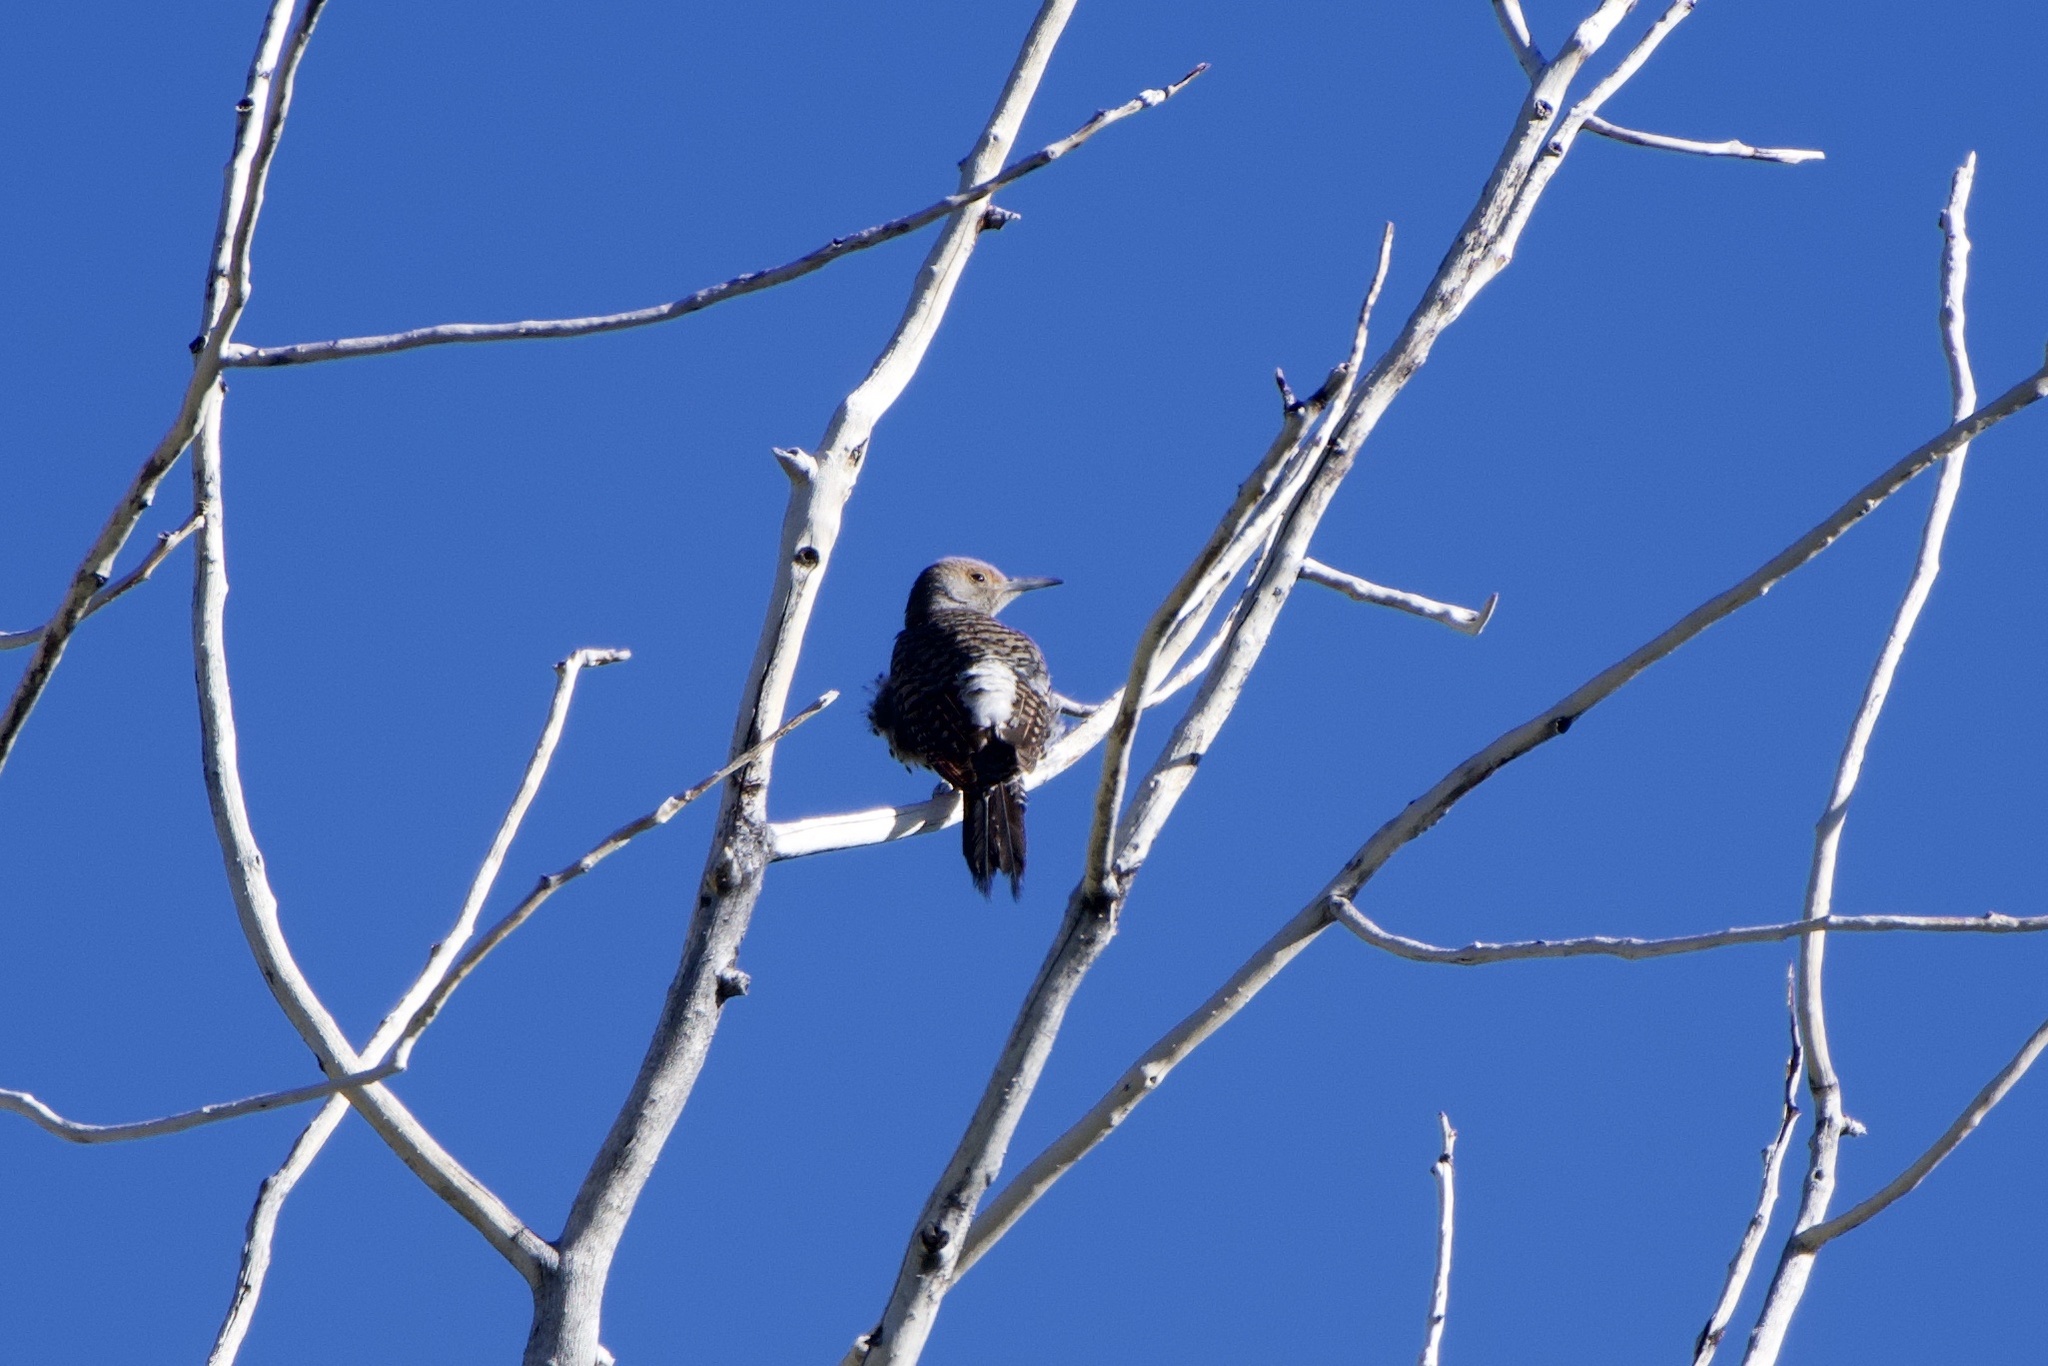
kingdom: Animalia
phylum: Chordata
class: Aves
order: Piciformes
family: Picidae
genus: Colaptes
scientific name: Colaptes auratus
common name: Northern flicker
